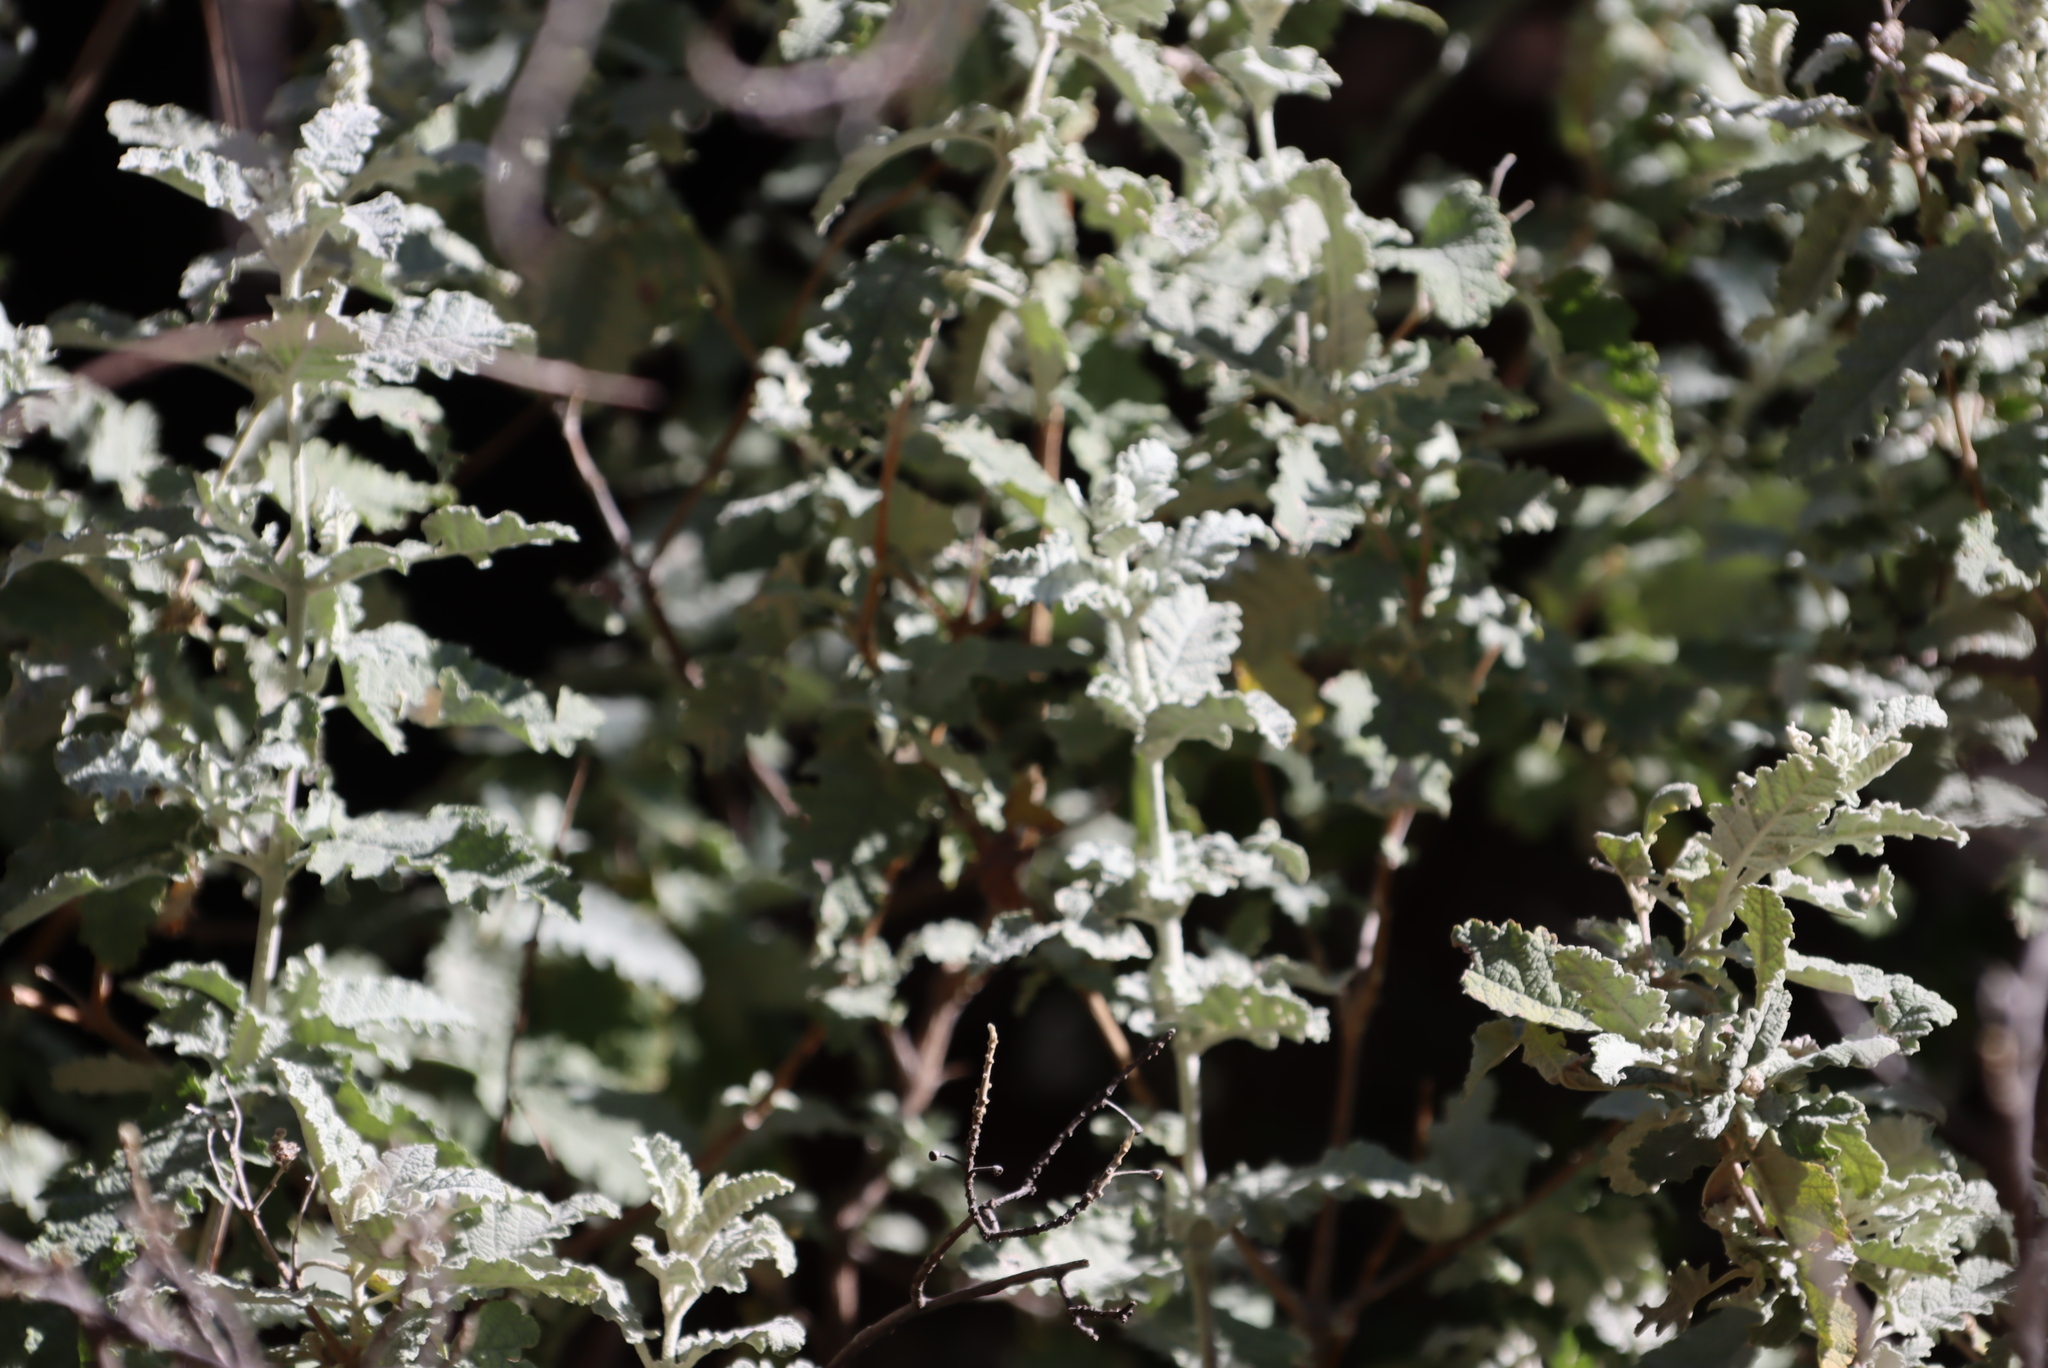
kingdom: Plantae
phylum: Tracheophyta
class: Magnoliopsida
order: Lamiales
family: Scrophulariaceae
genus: Buddleja
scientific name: Buddleja glomerata
